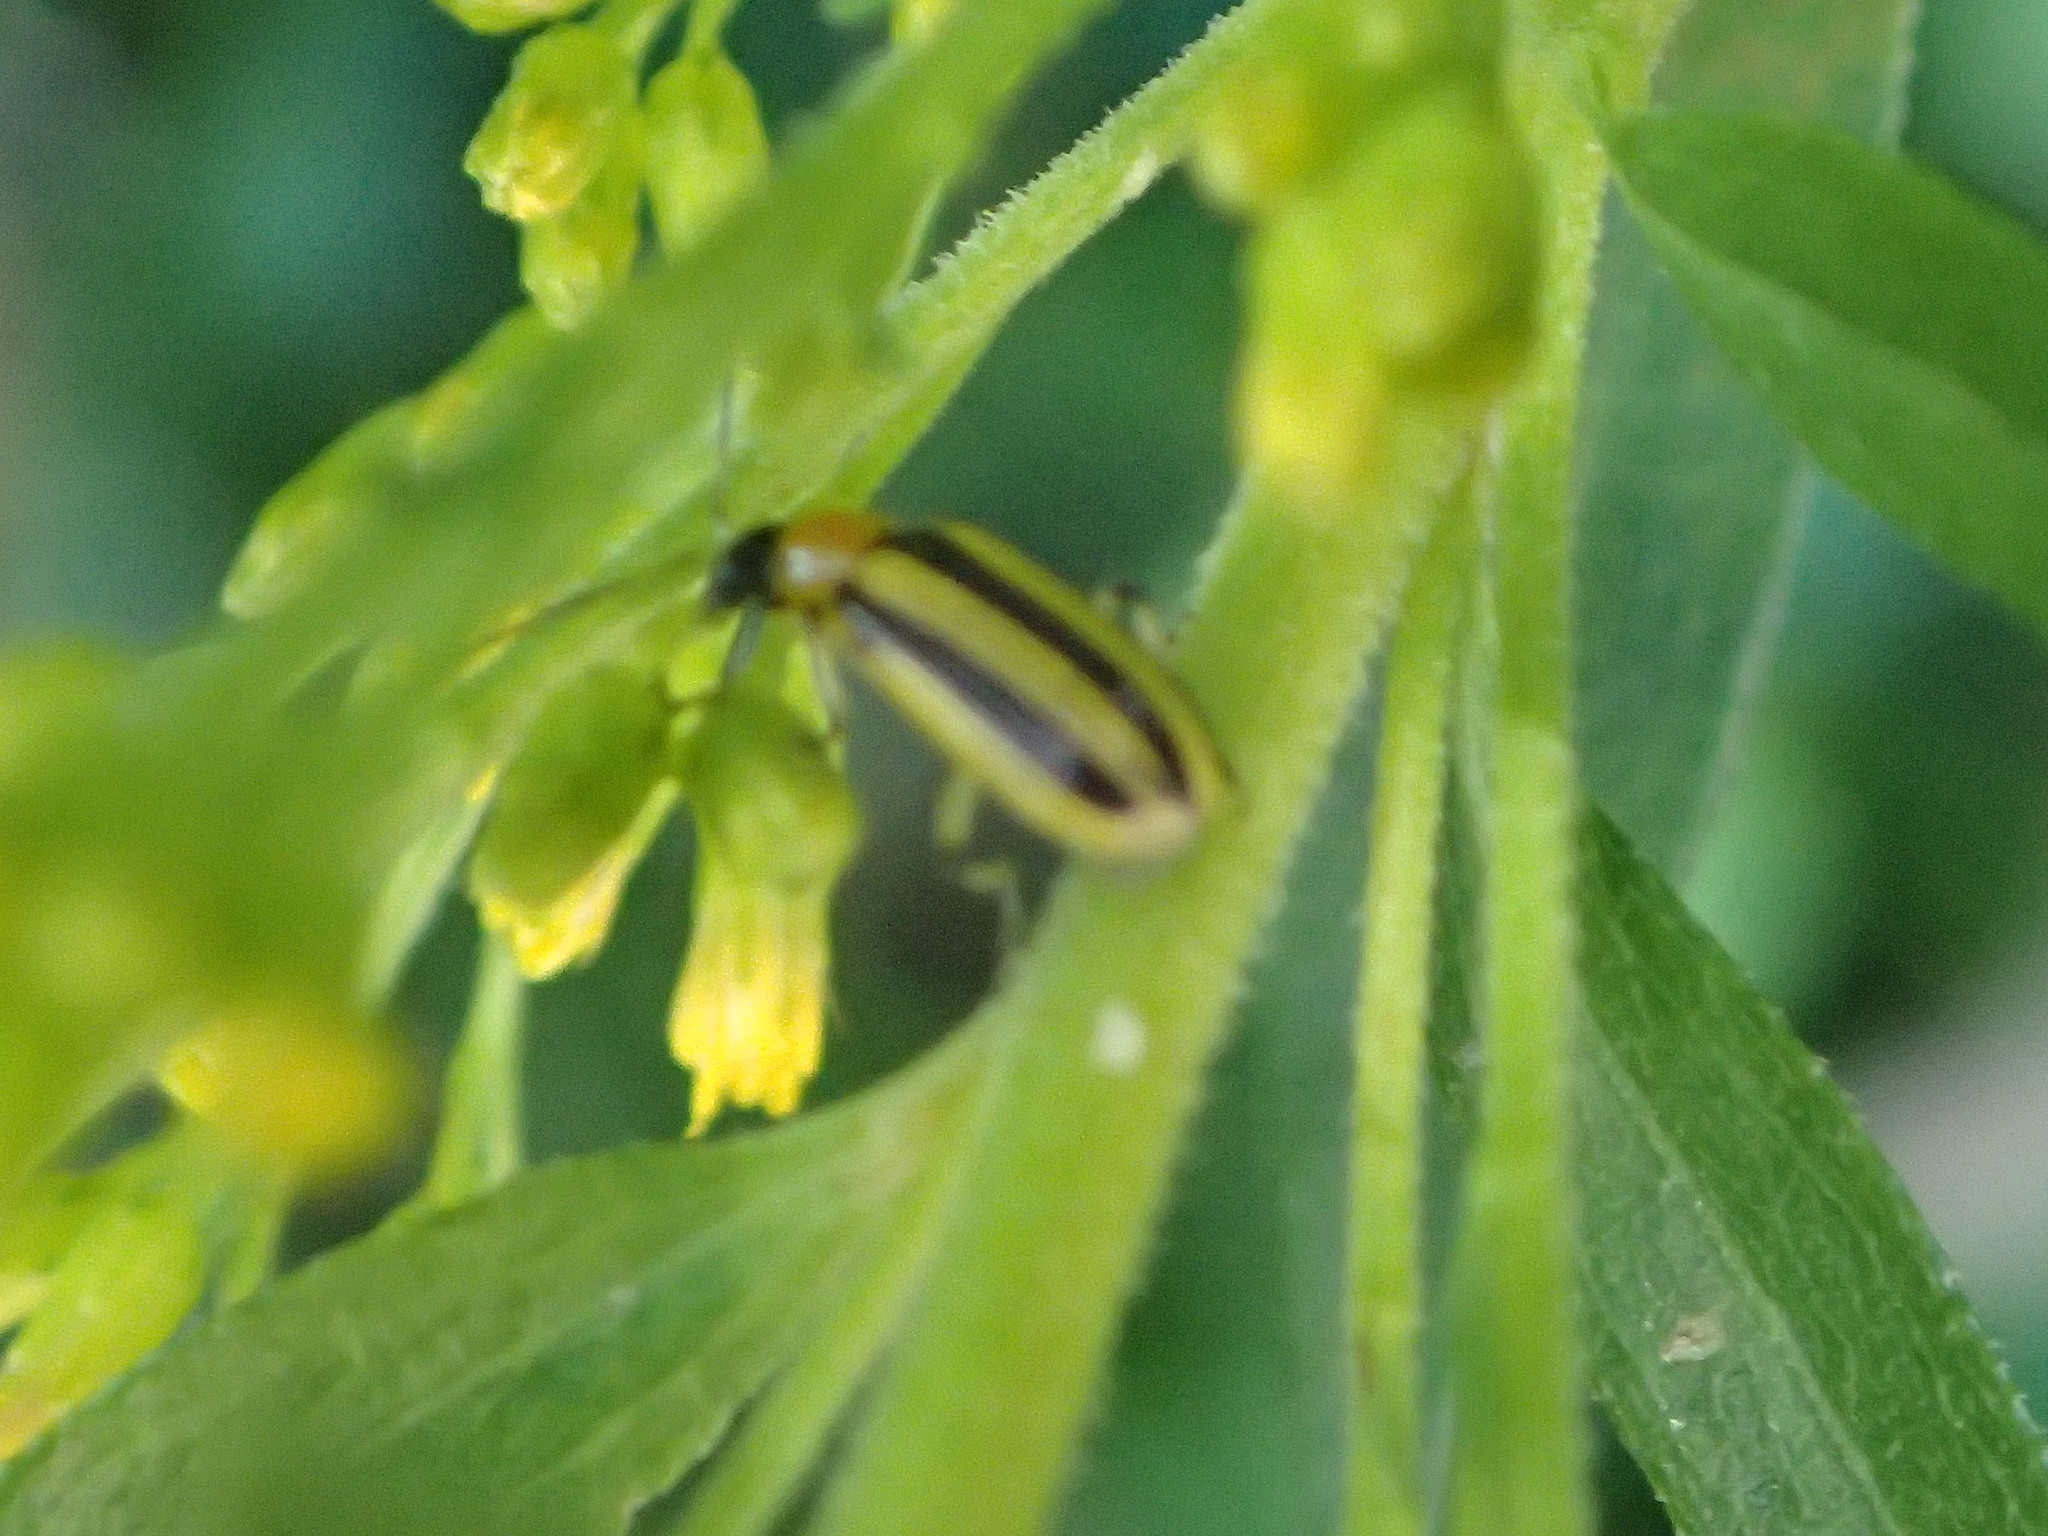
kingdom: Animalia
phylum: Arthropoda
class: Insecta
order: Coleoptera
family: Chrysomelidae
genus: Acalymma
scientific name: Acalymma vittatum
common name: Striped cucumber beetle
